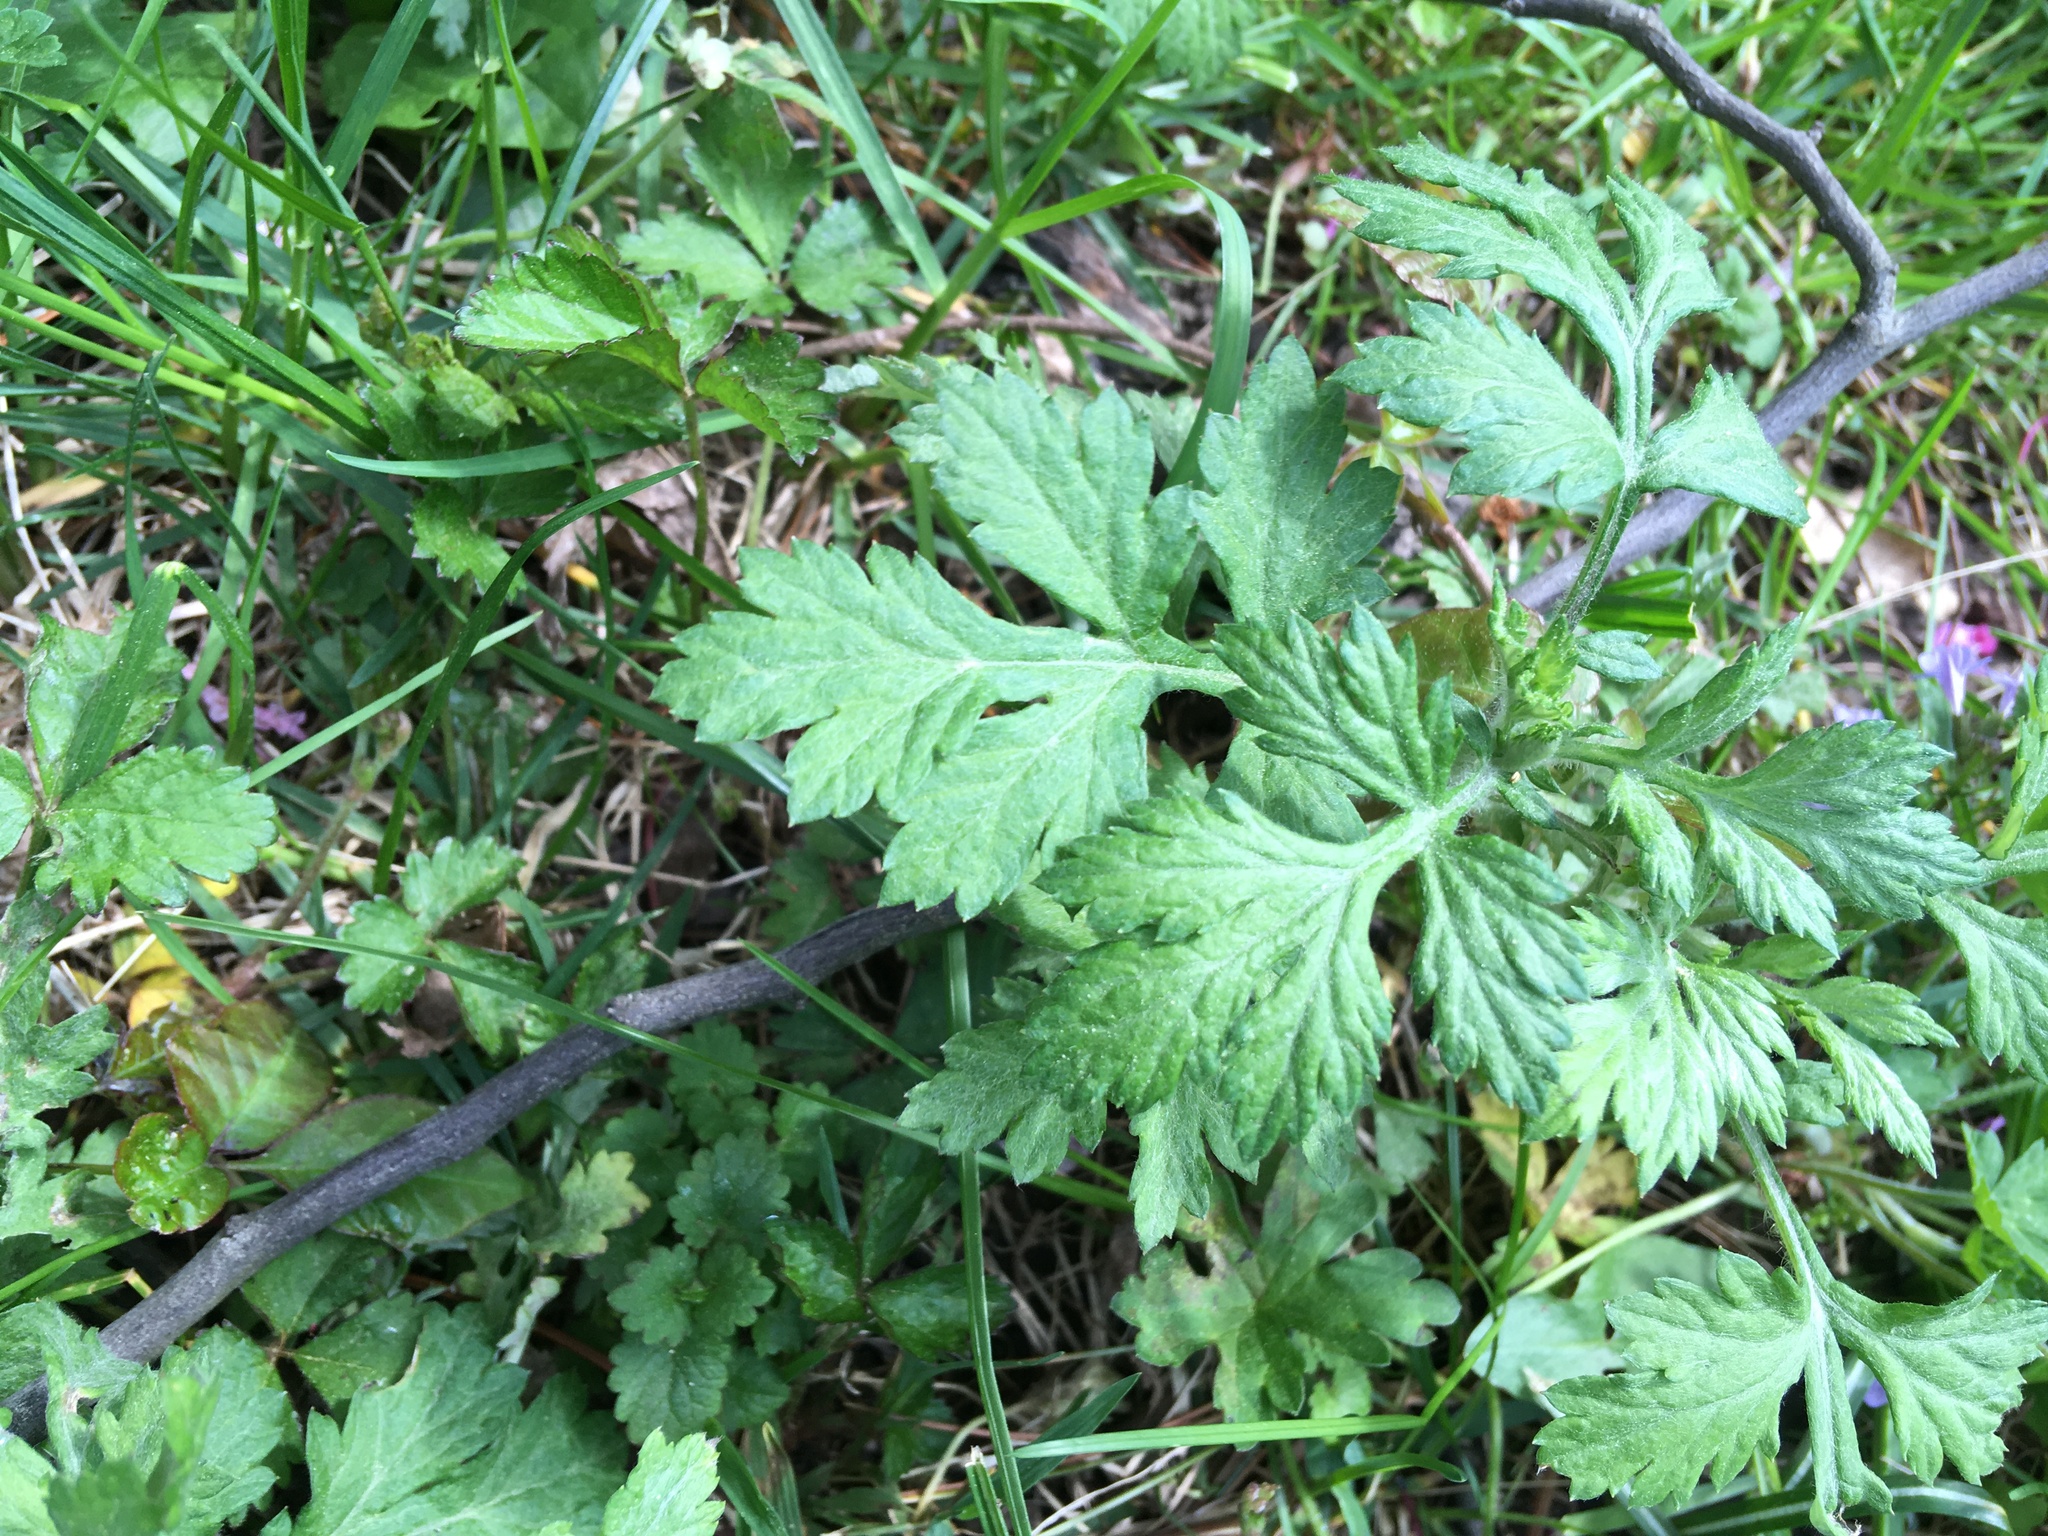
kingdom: Plantae
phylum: Tracheophyta
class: Magnoliopsida
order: Asterales
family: Asteraceae
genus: Artemisia
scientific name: Artemisia vulgaris
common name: Mugwort
